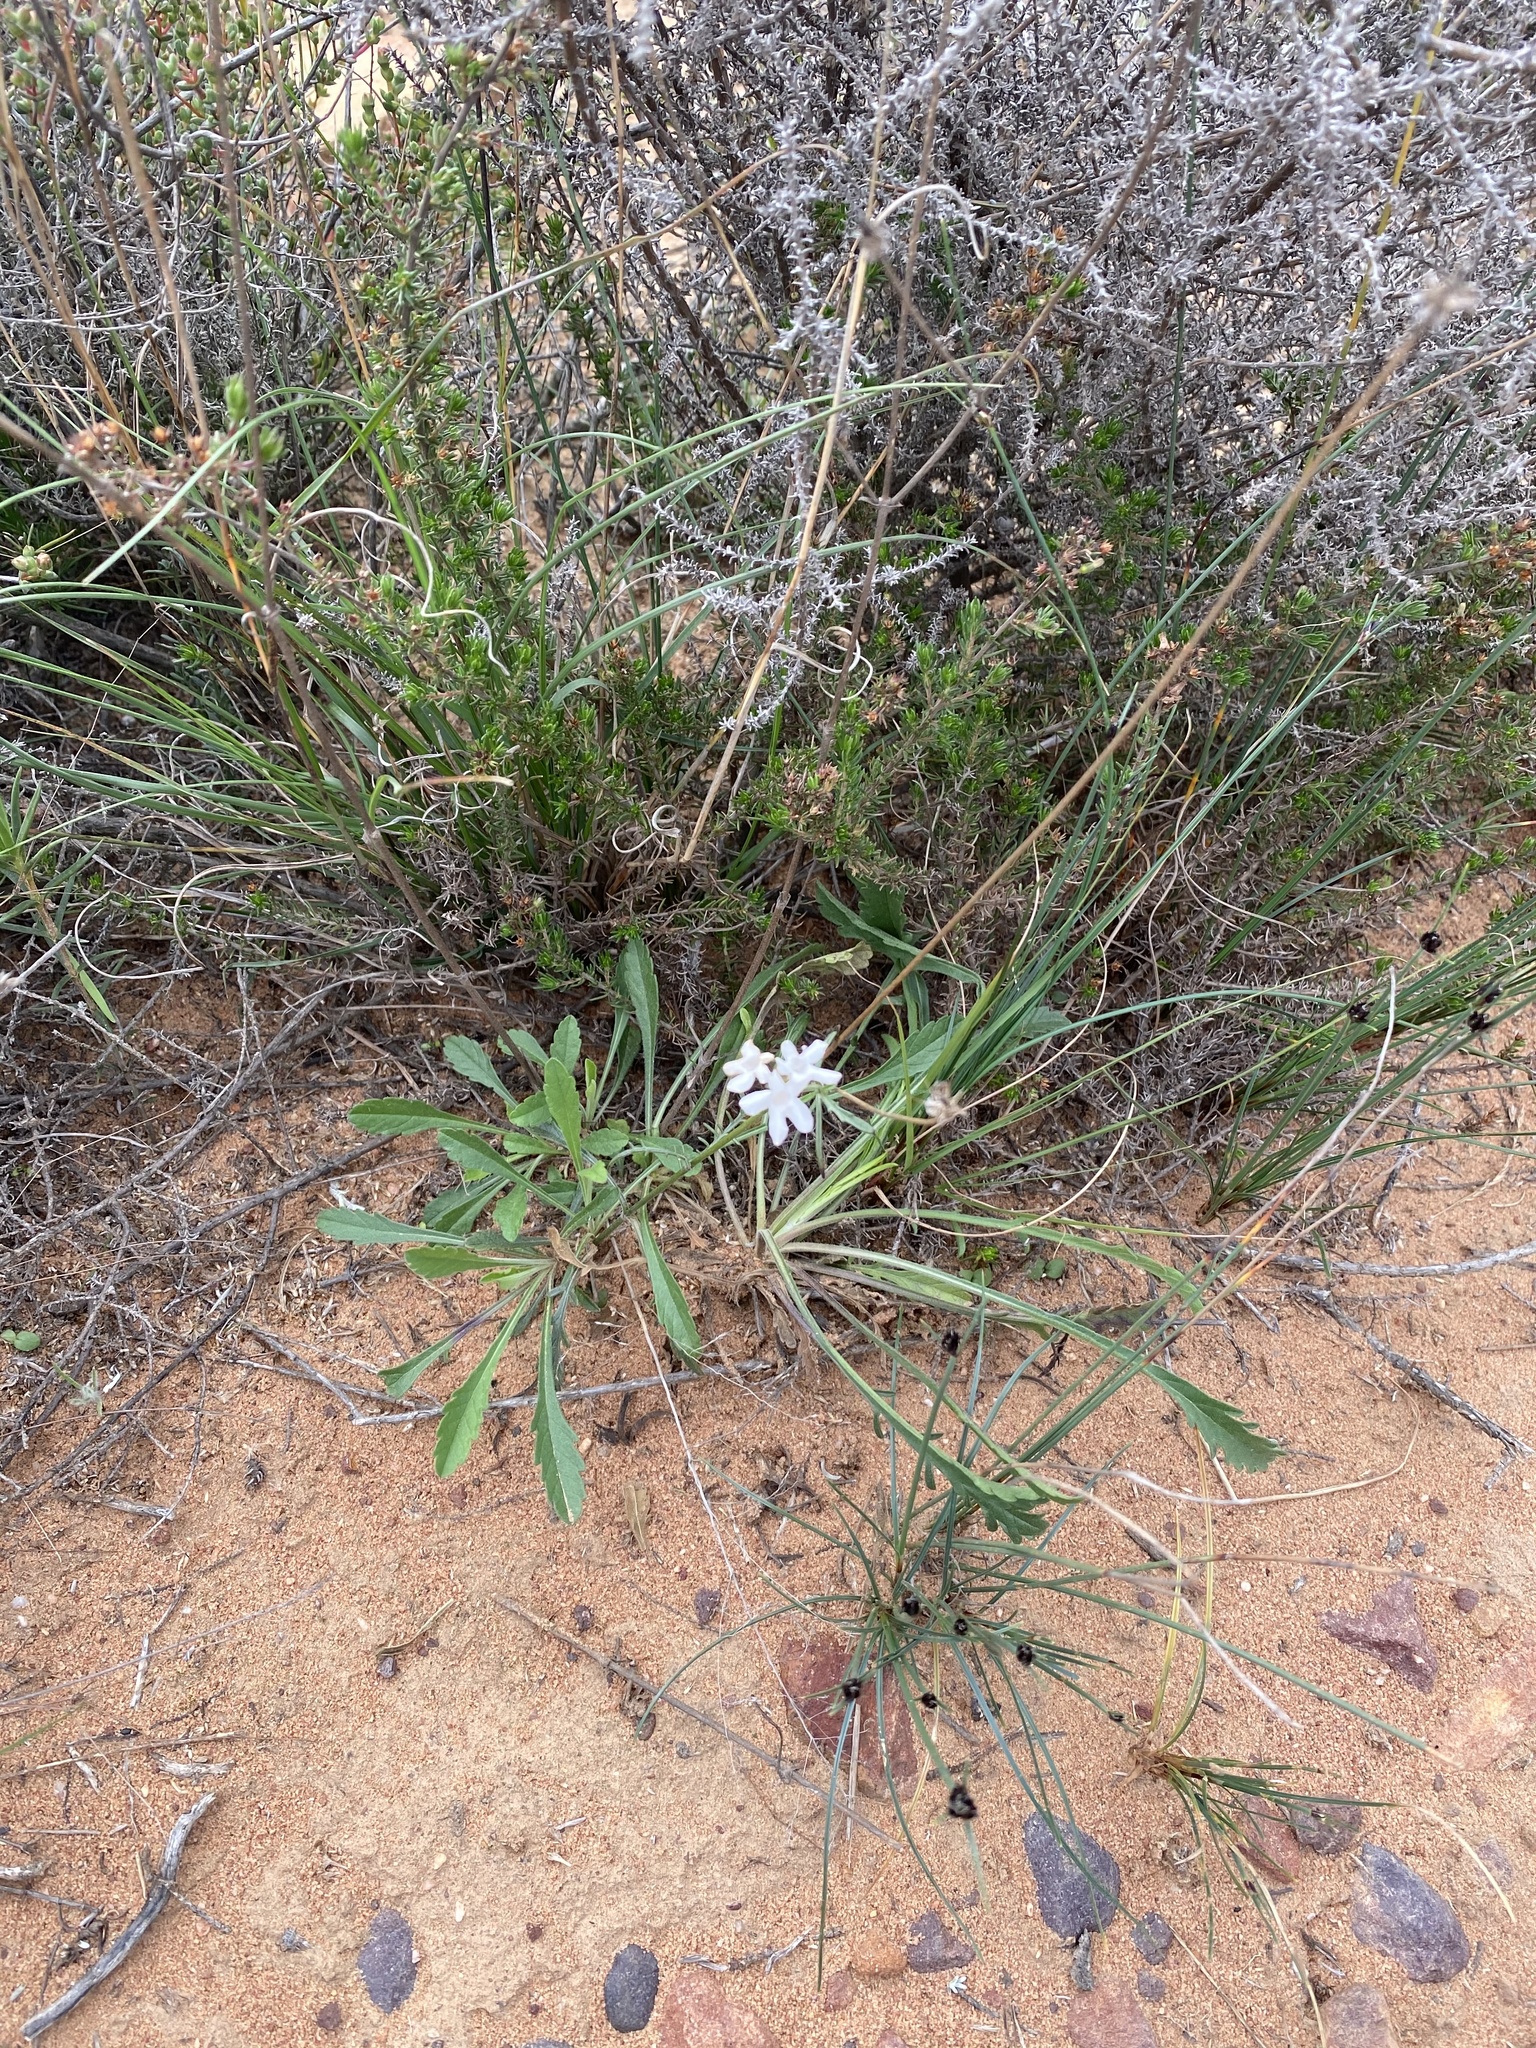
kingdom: Plantae
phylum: Tracheophyta
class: Magnoliopsida
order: Dipsacales
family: Caprifoliaceae
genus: Scabiosa
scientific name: Scabiosa columbaria
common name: Small scabious
